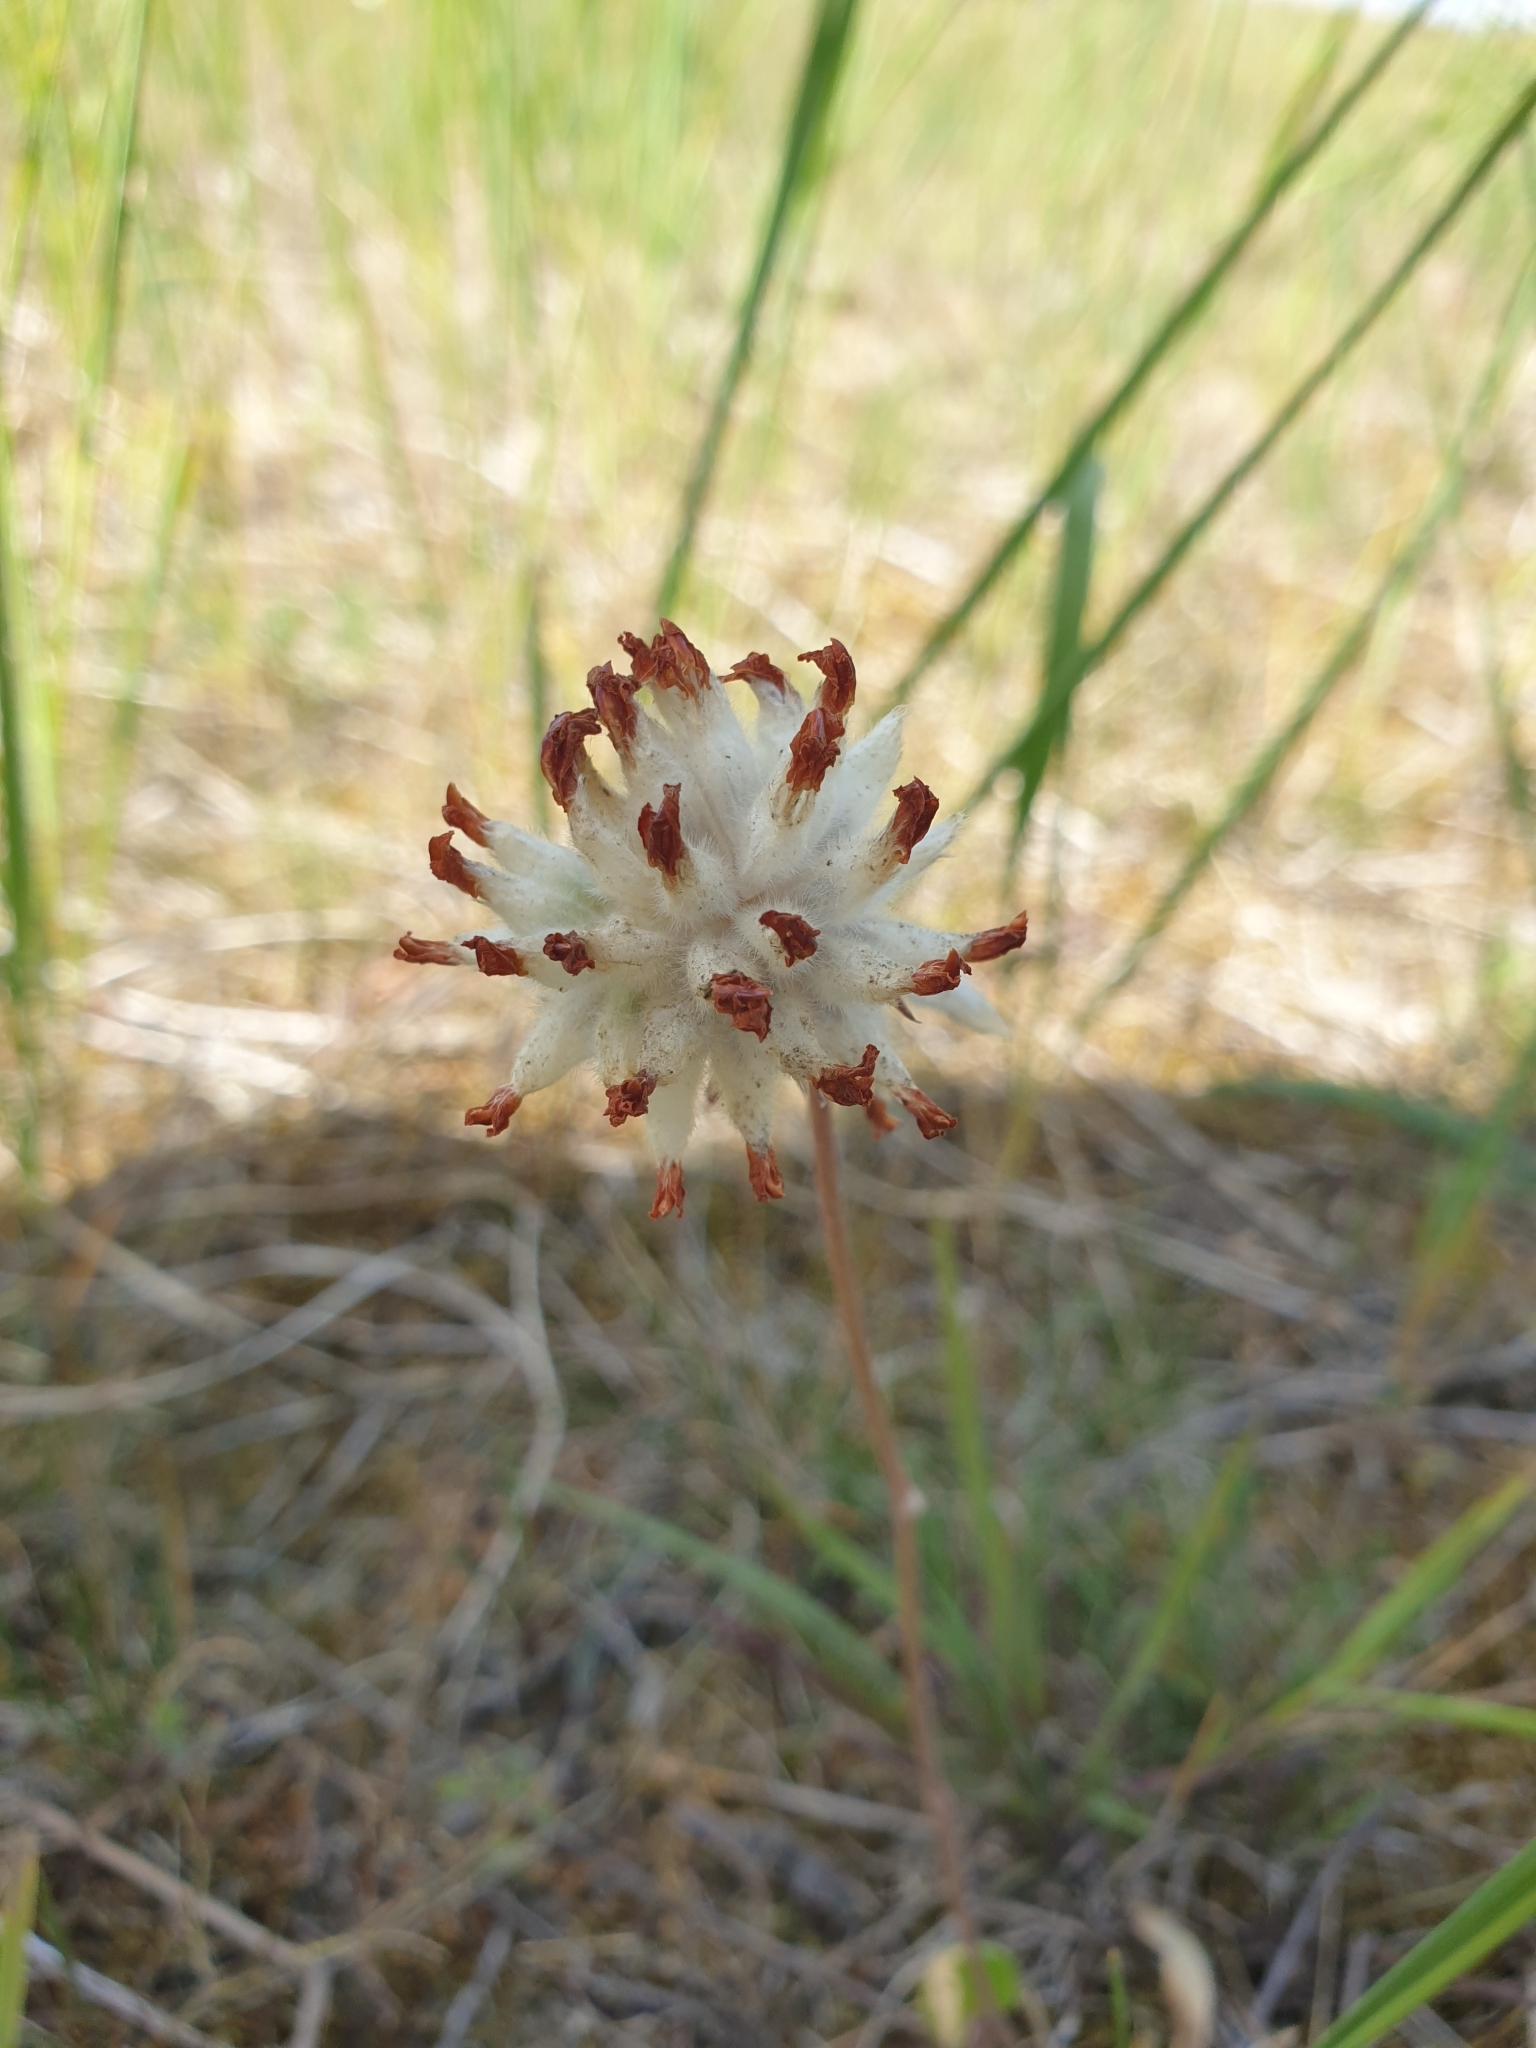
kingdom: Plantae
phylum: Tracheophyta
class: Magnoliopsida
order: Fabales
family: Fabaceae
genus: Anthyllis
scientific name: Anthyllis vulneraria
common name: Kidney vetch
